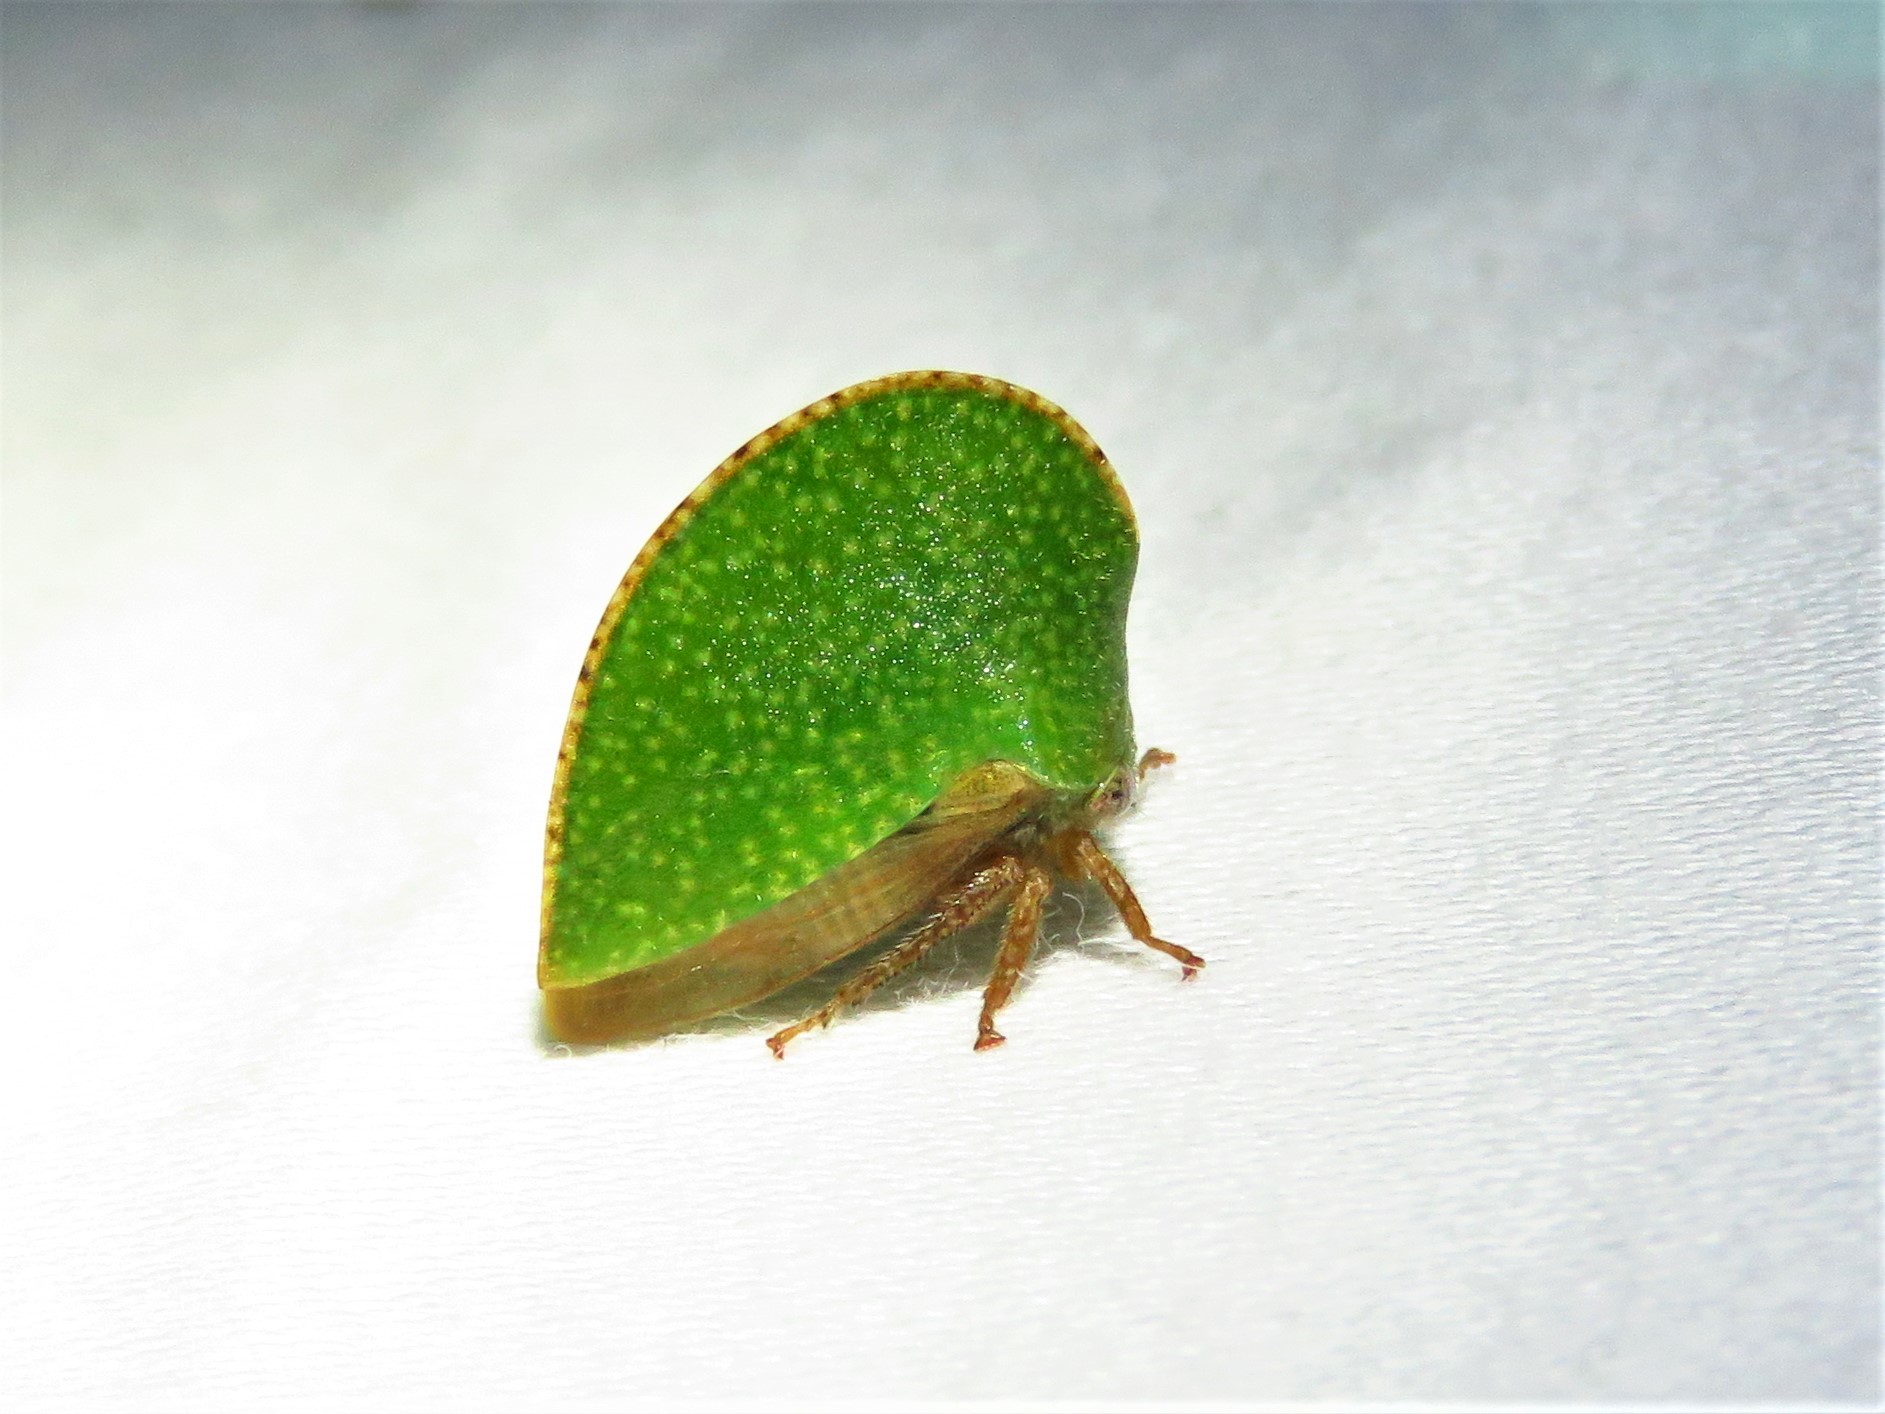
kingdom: Animalia
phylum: Arthropoda
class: Insecta
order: Hemiptera
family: Membracidae
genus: Archasia
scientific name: Archasia auriculata
